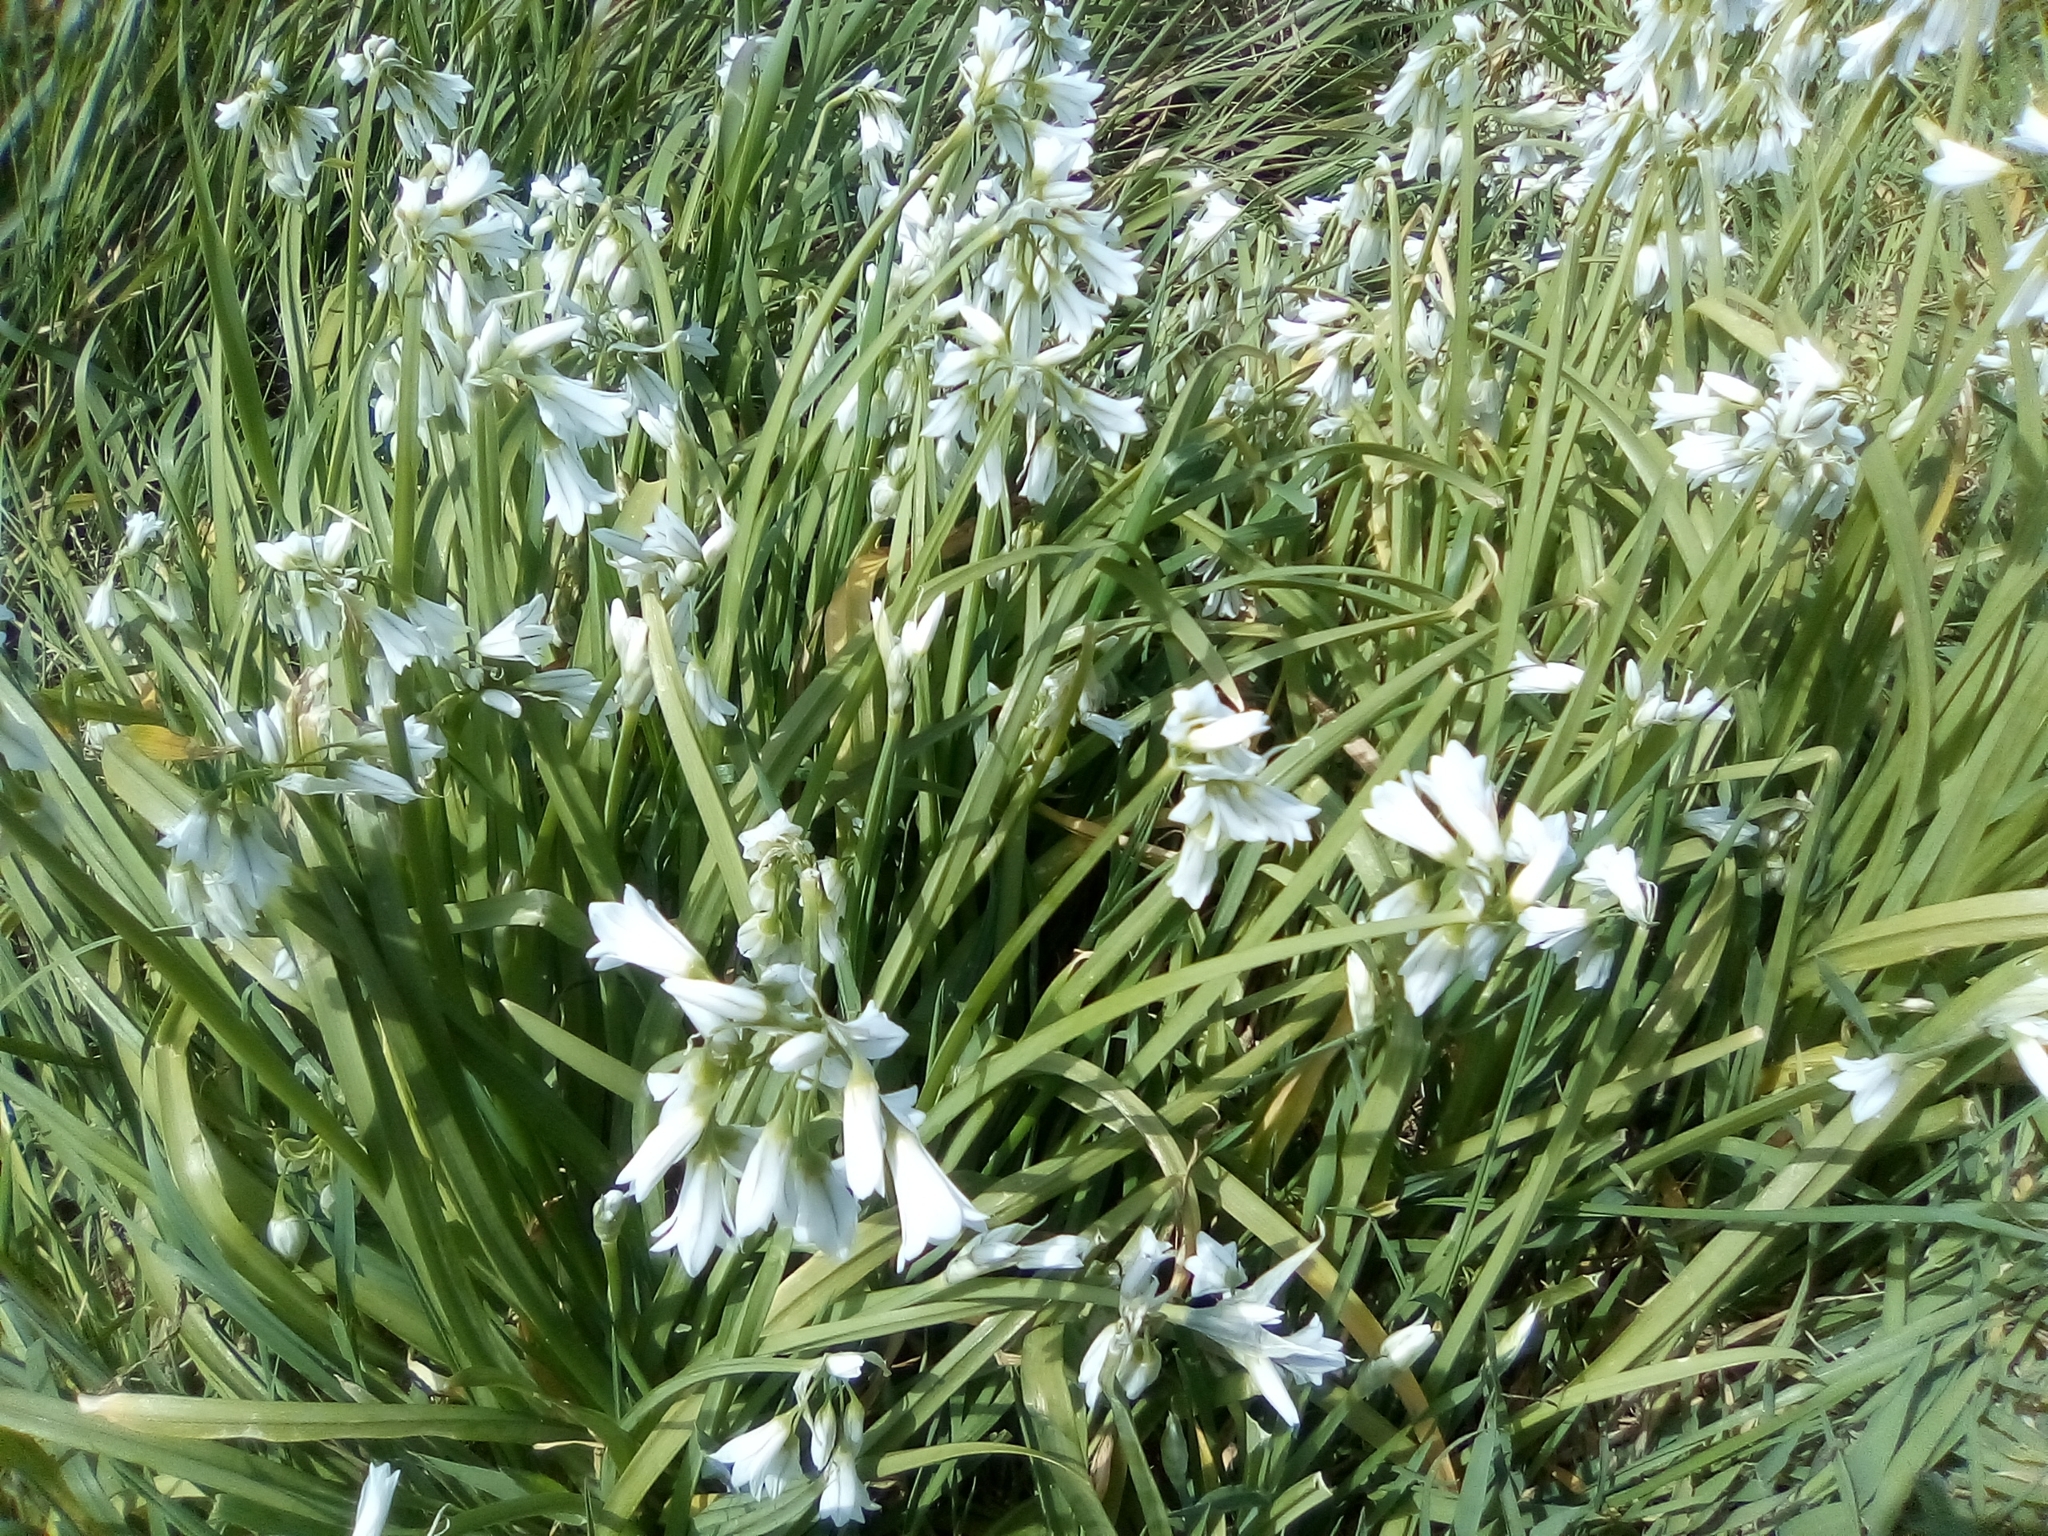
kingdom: Plantae
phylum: Tracheophyta
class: Liliopsida
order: Asparagales
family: Amaryllidaceae
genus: Allium
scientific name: Allium triquetrum
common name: Three-cornered garlic
